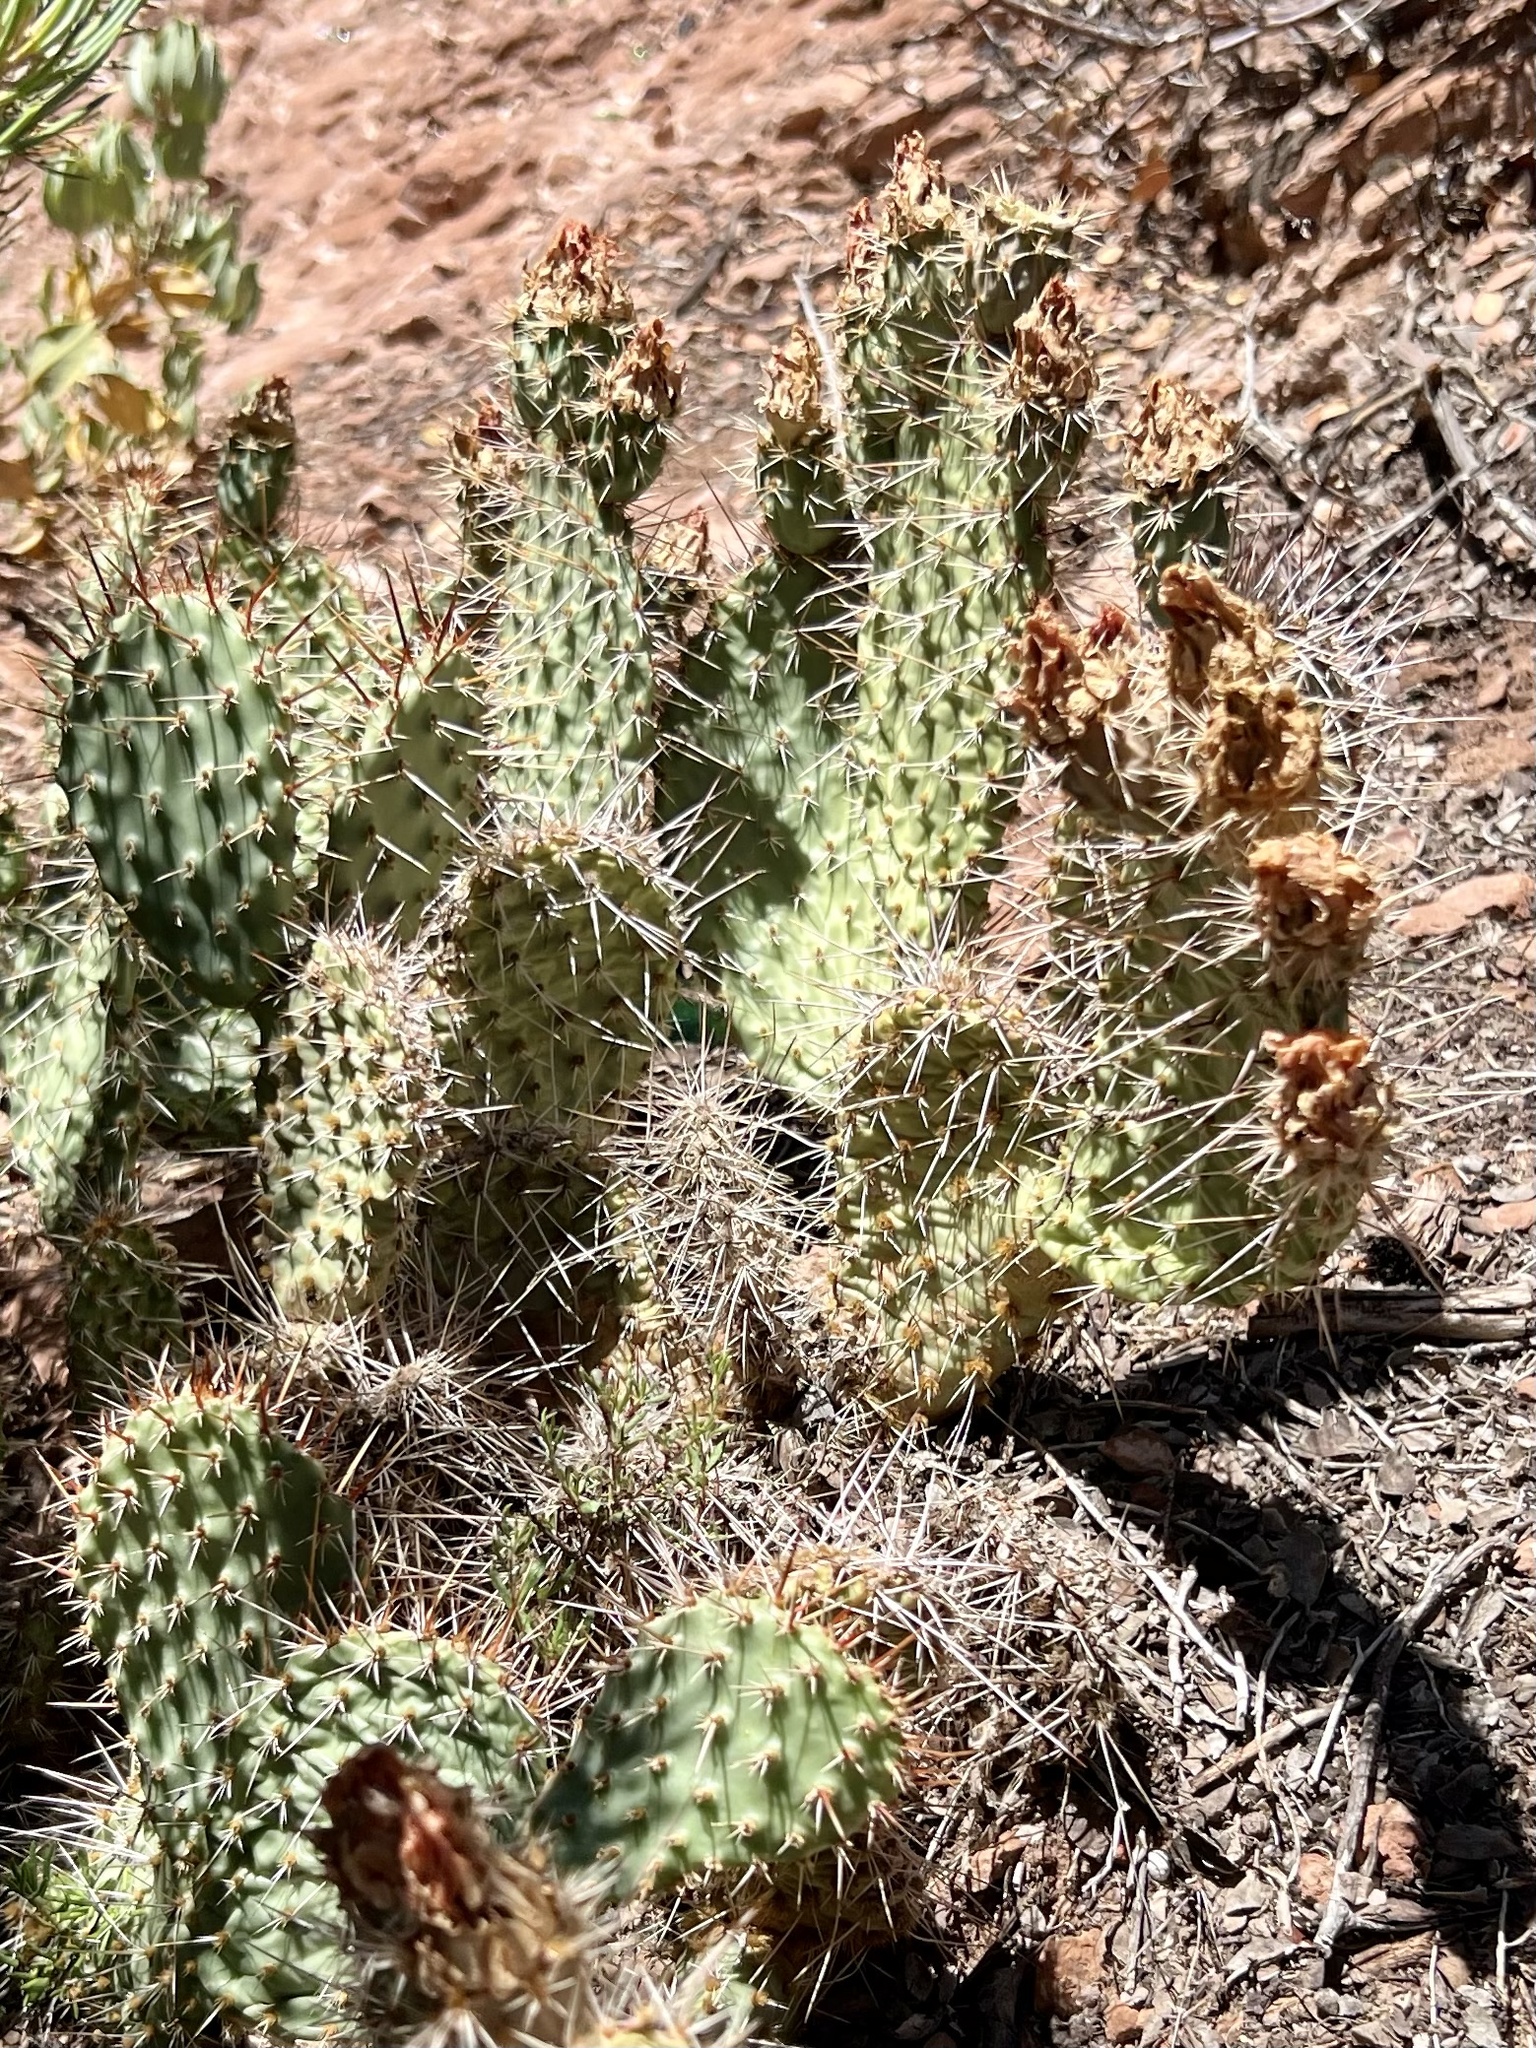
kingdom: Plantae
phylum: Tracheophyta
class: Magnoliopsida
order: Caryophyllales
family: Cactaceae
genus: Opuntia
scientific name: Opuntia polyacantha
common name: Plains prickly-pear
